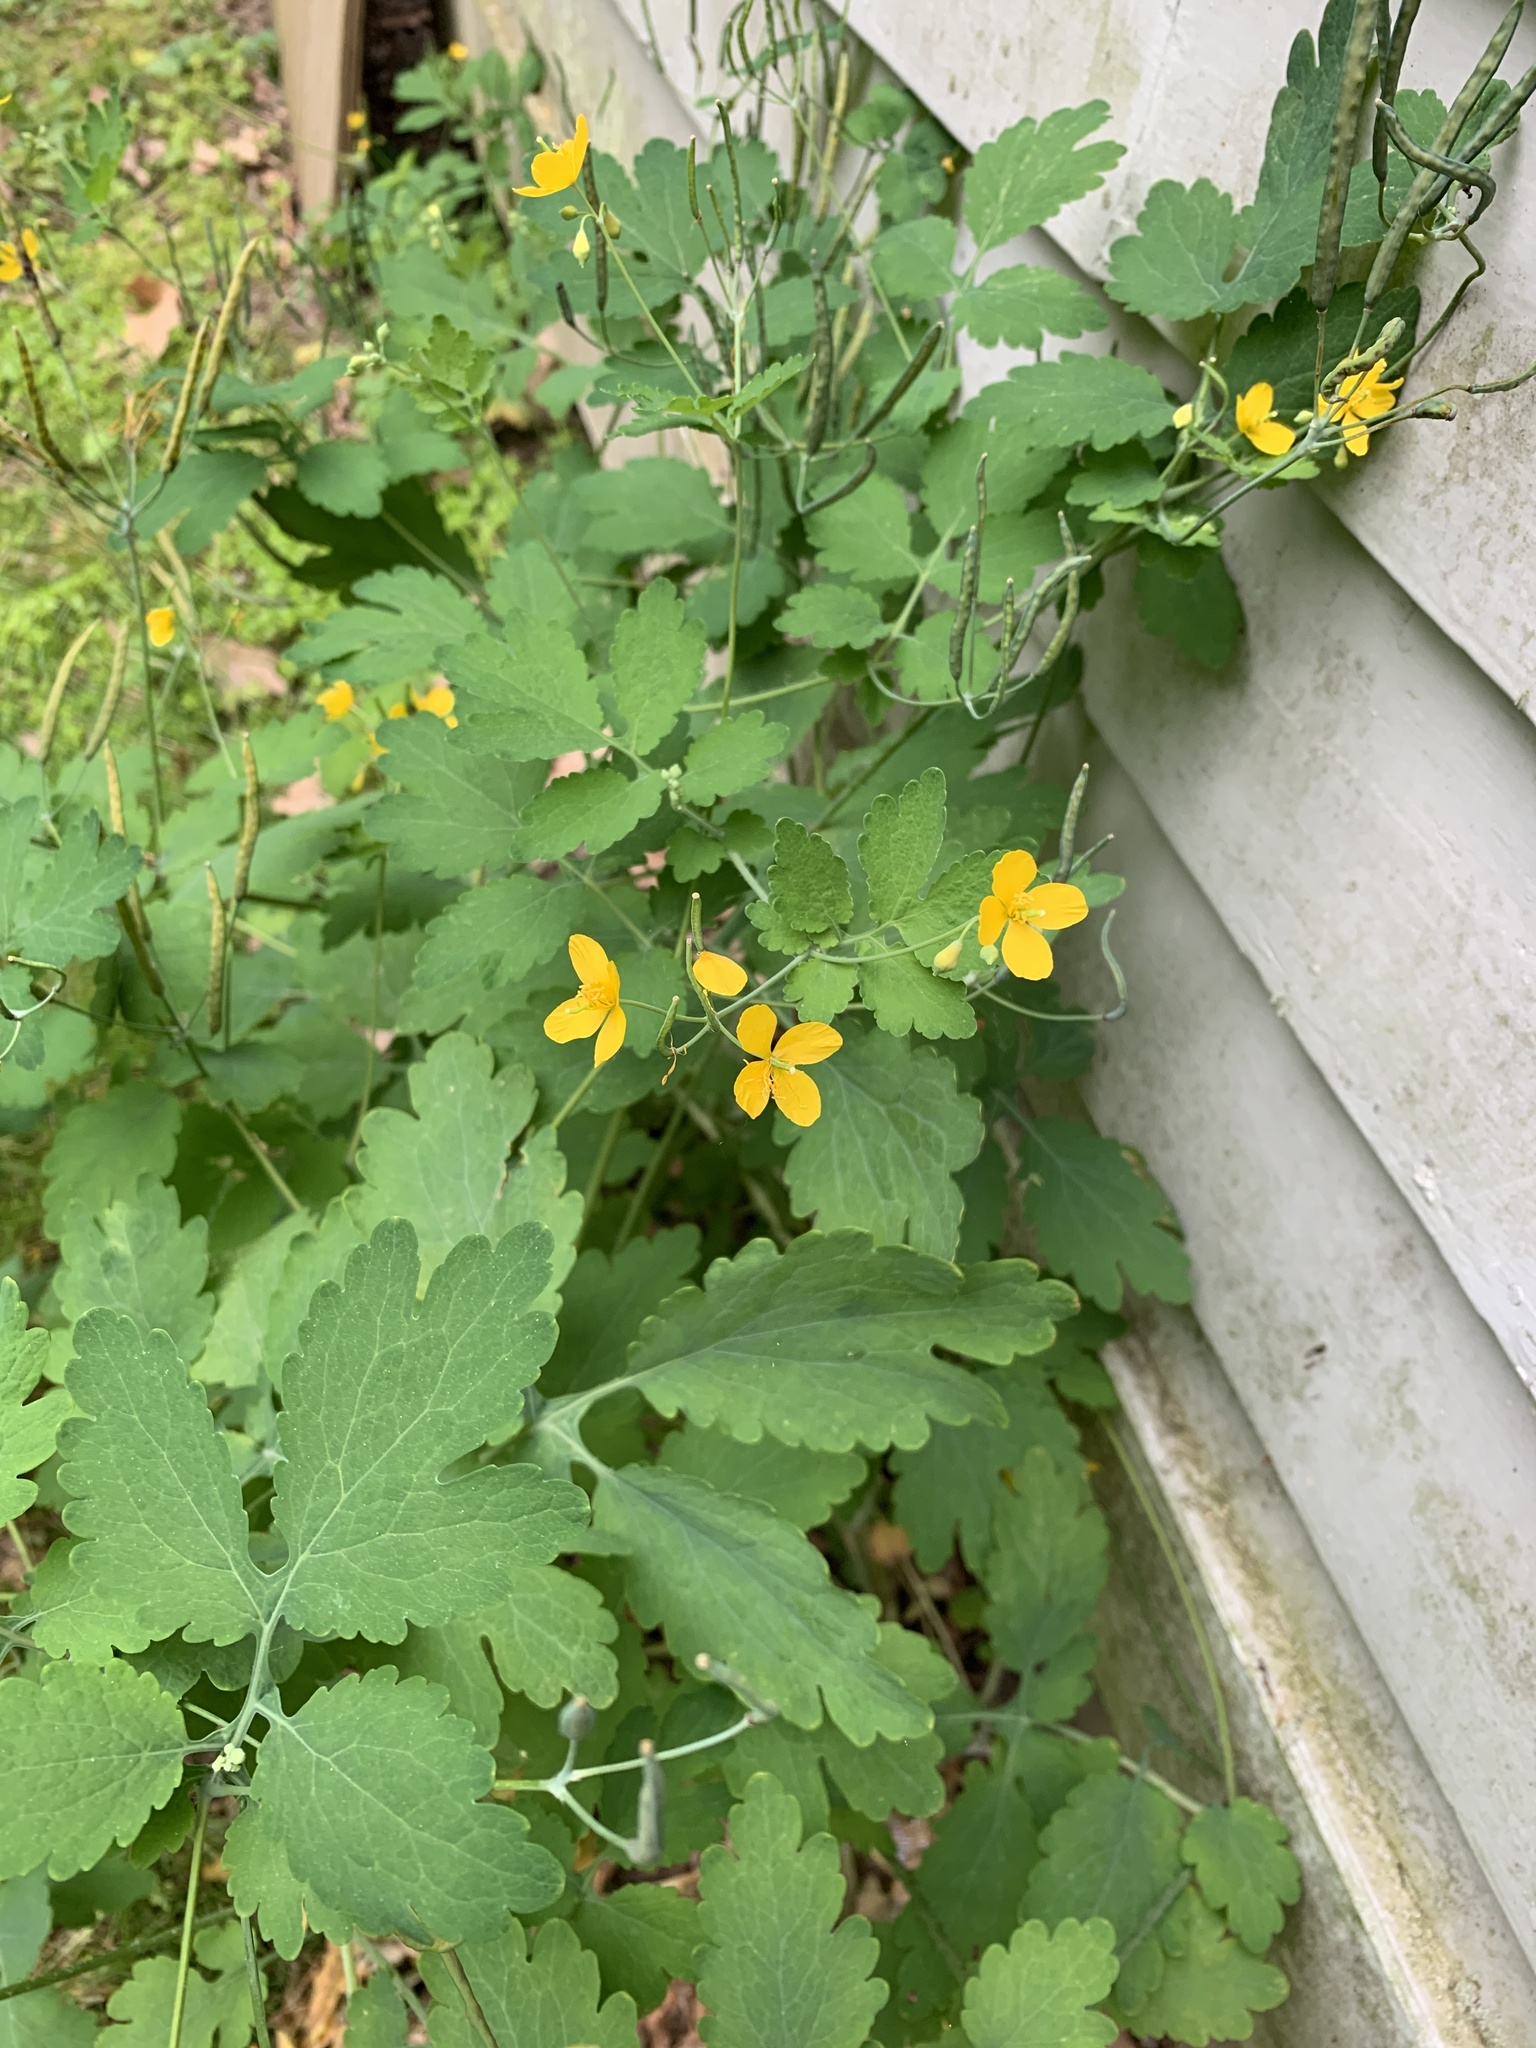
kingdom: Plantae
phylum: Tracheophyta
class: Magnoliopsida
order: Ranunculales
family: Papaveraceae
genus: Chelidonium
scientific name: Chelidonium majus
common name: Greater celandine
